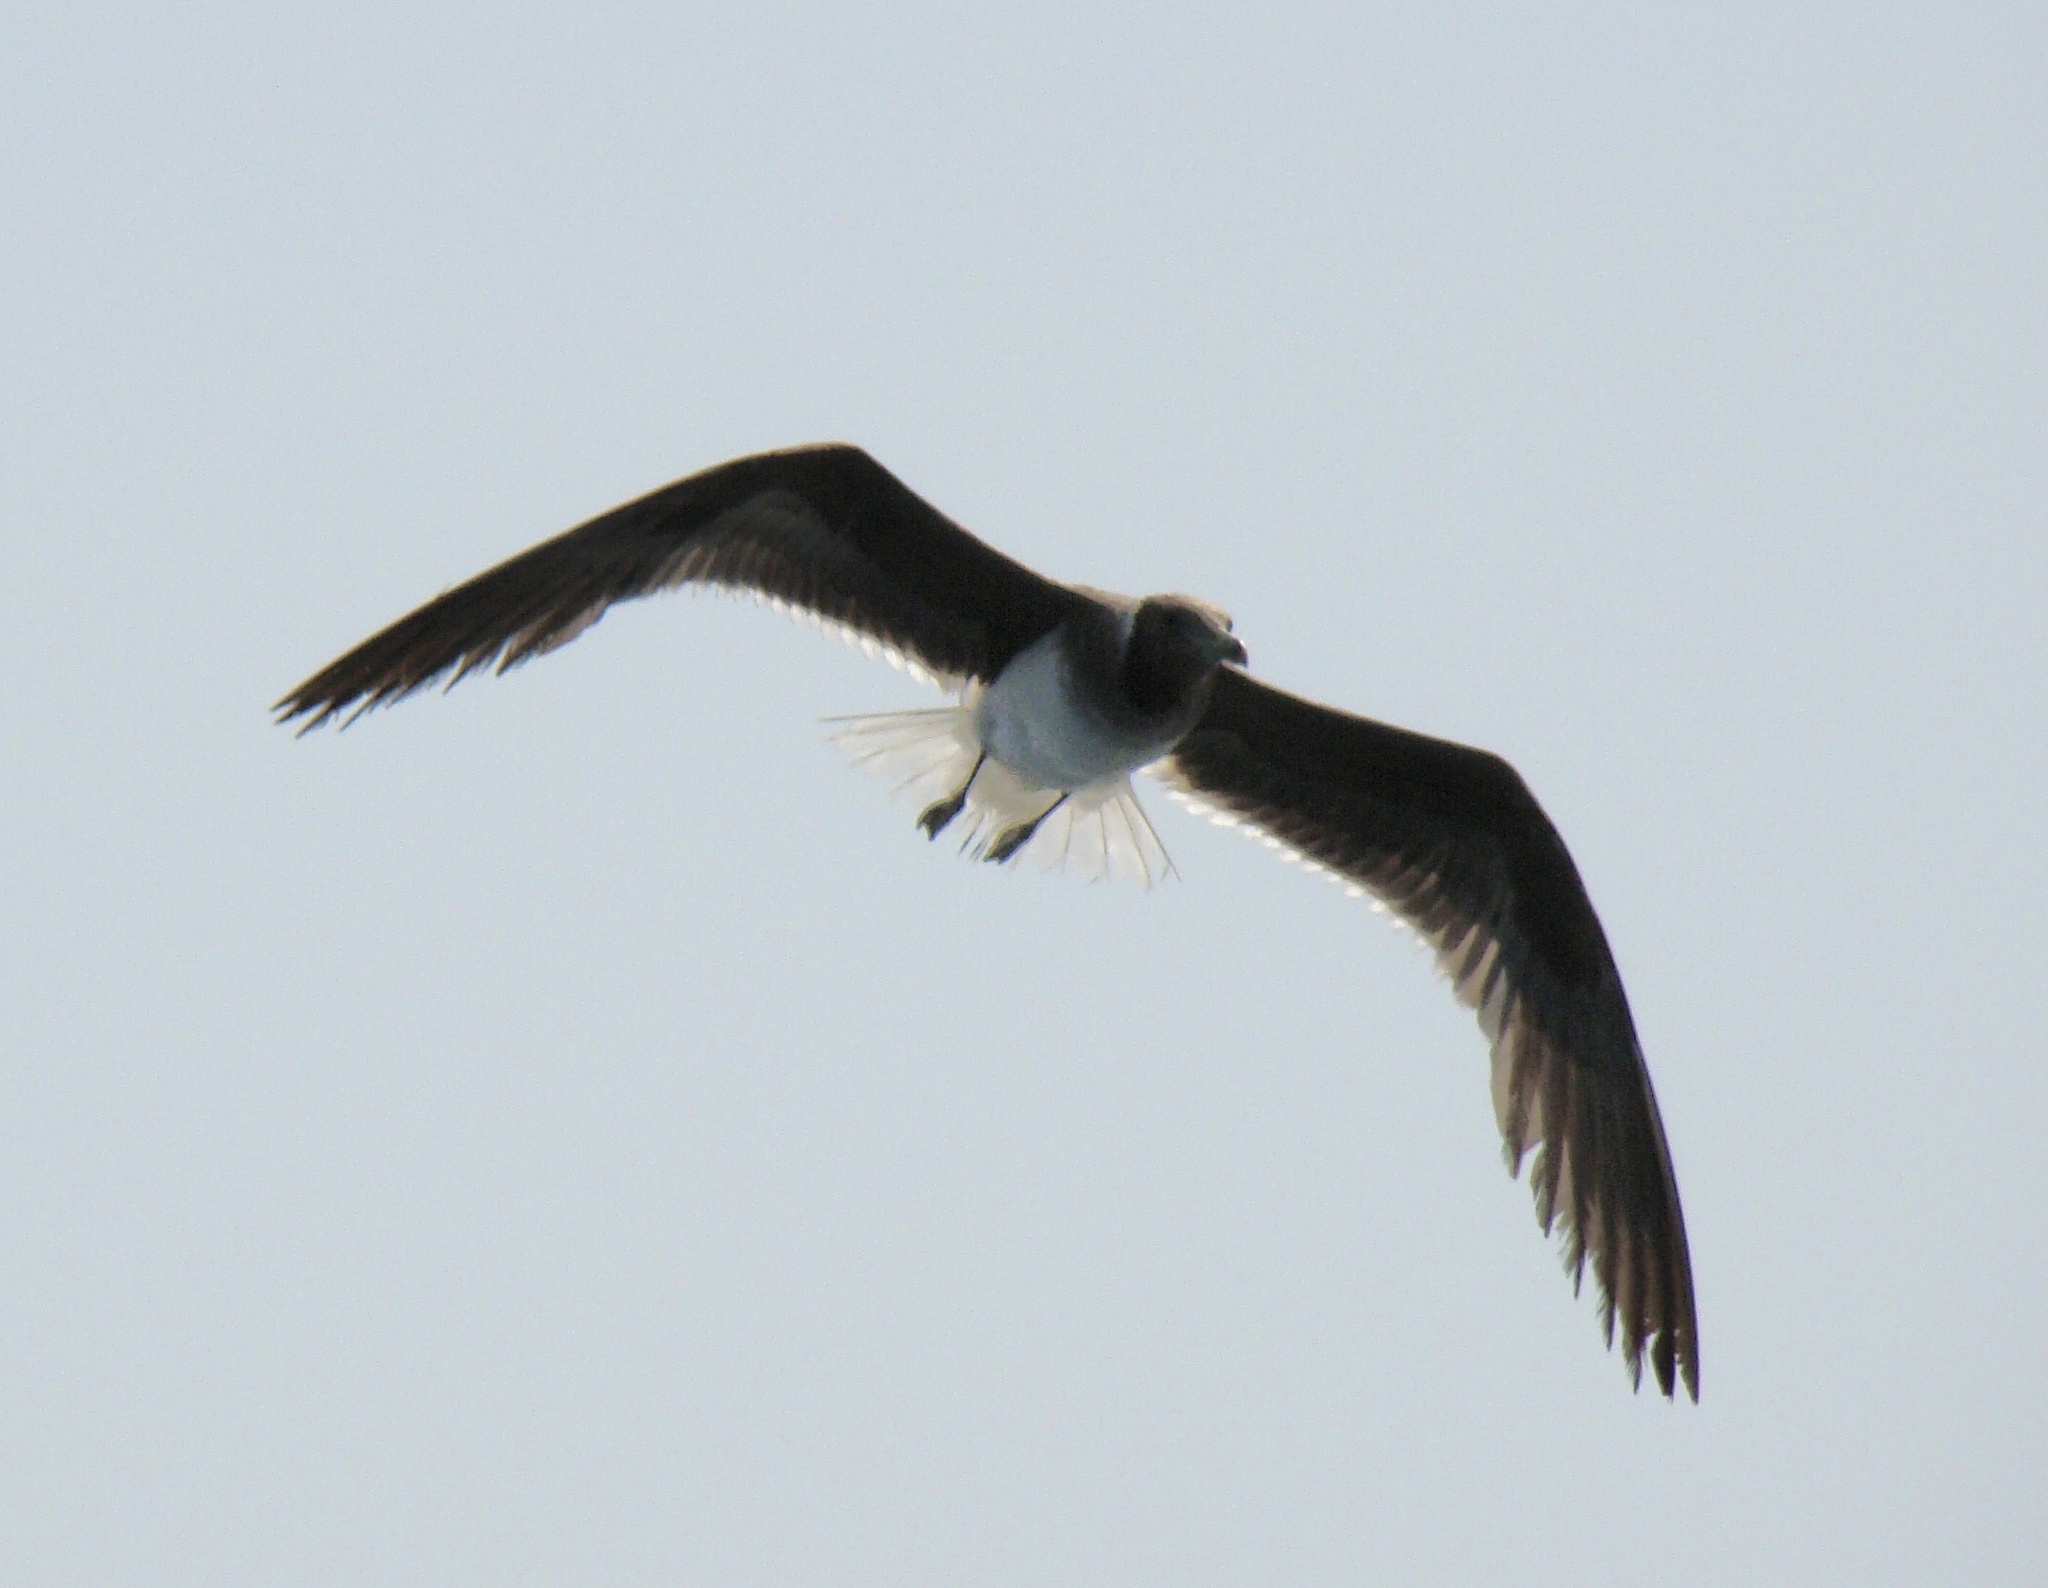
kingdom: Animalia
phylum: Chordata
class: Aves
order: Charadriiformes
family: Laridae
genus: Ichthyaetus
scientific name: Ichthyaetus hemprichii
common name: Sooty gull
